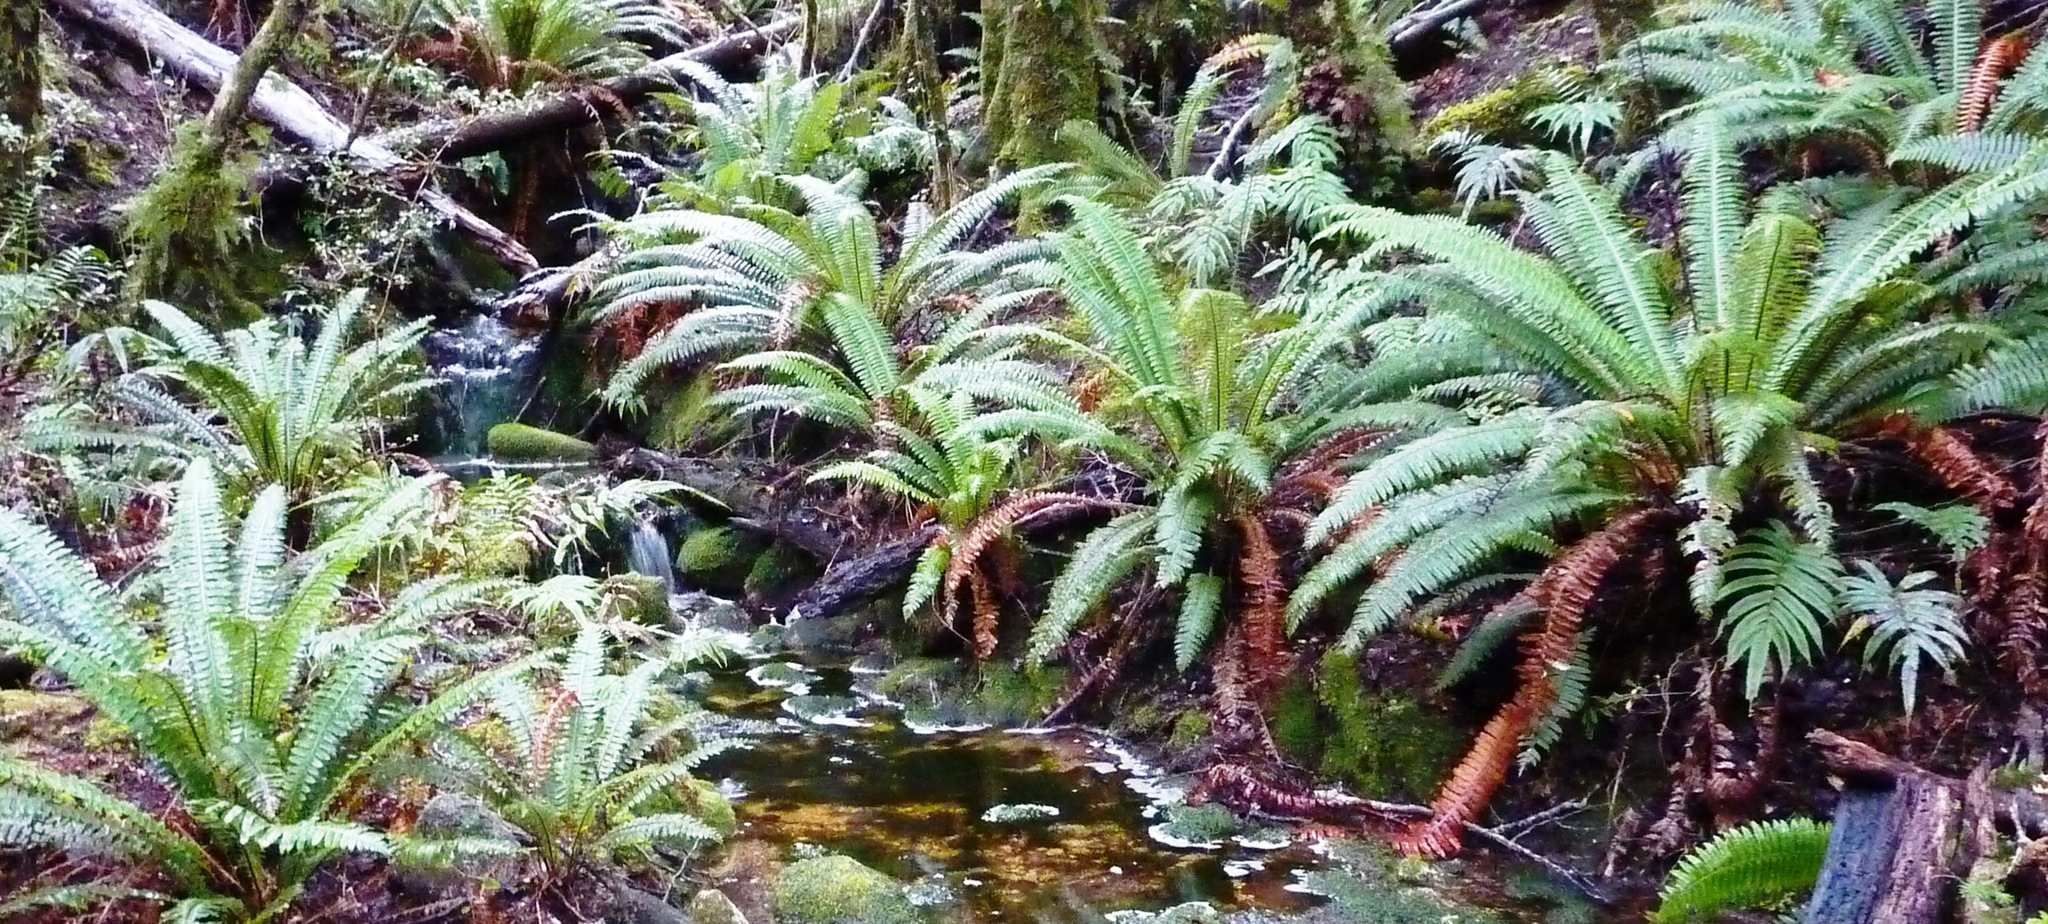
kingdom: Plantae
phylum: Tracheophyta
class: Polypodiopsida
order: Polypodiales
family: Blechnaceae
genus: Lomaria
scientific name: Lomaria discolor
